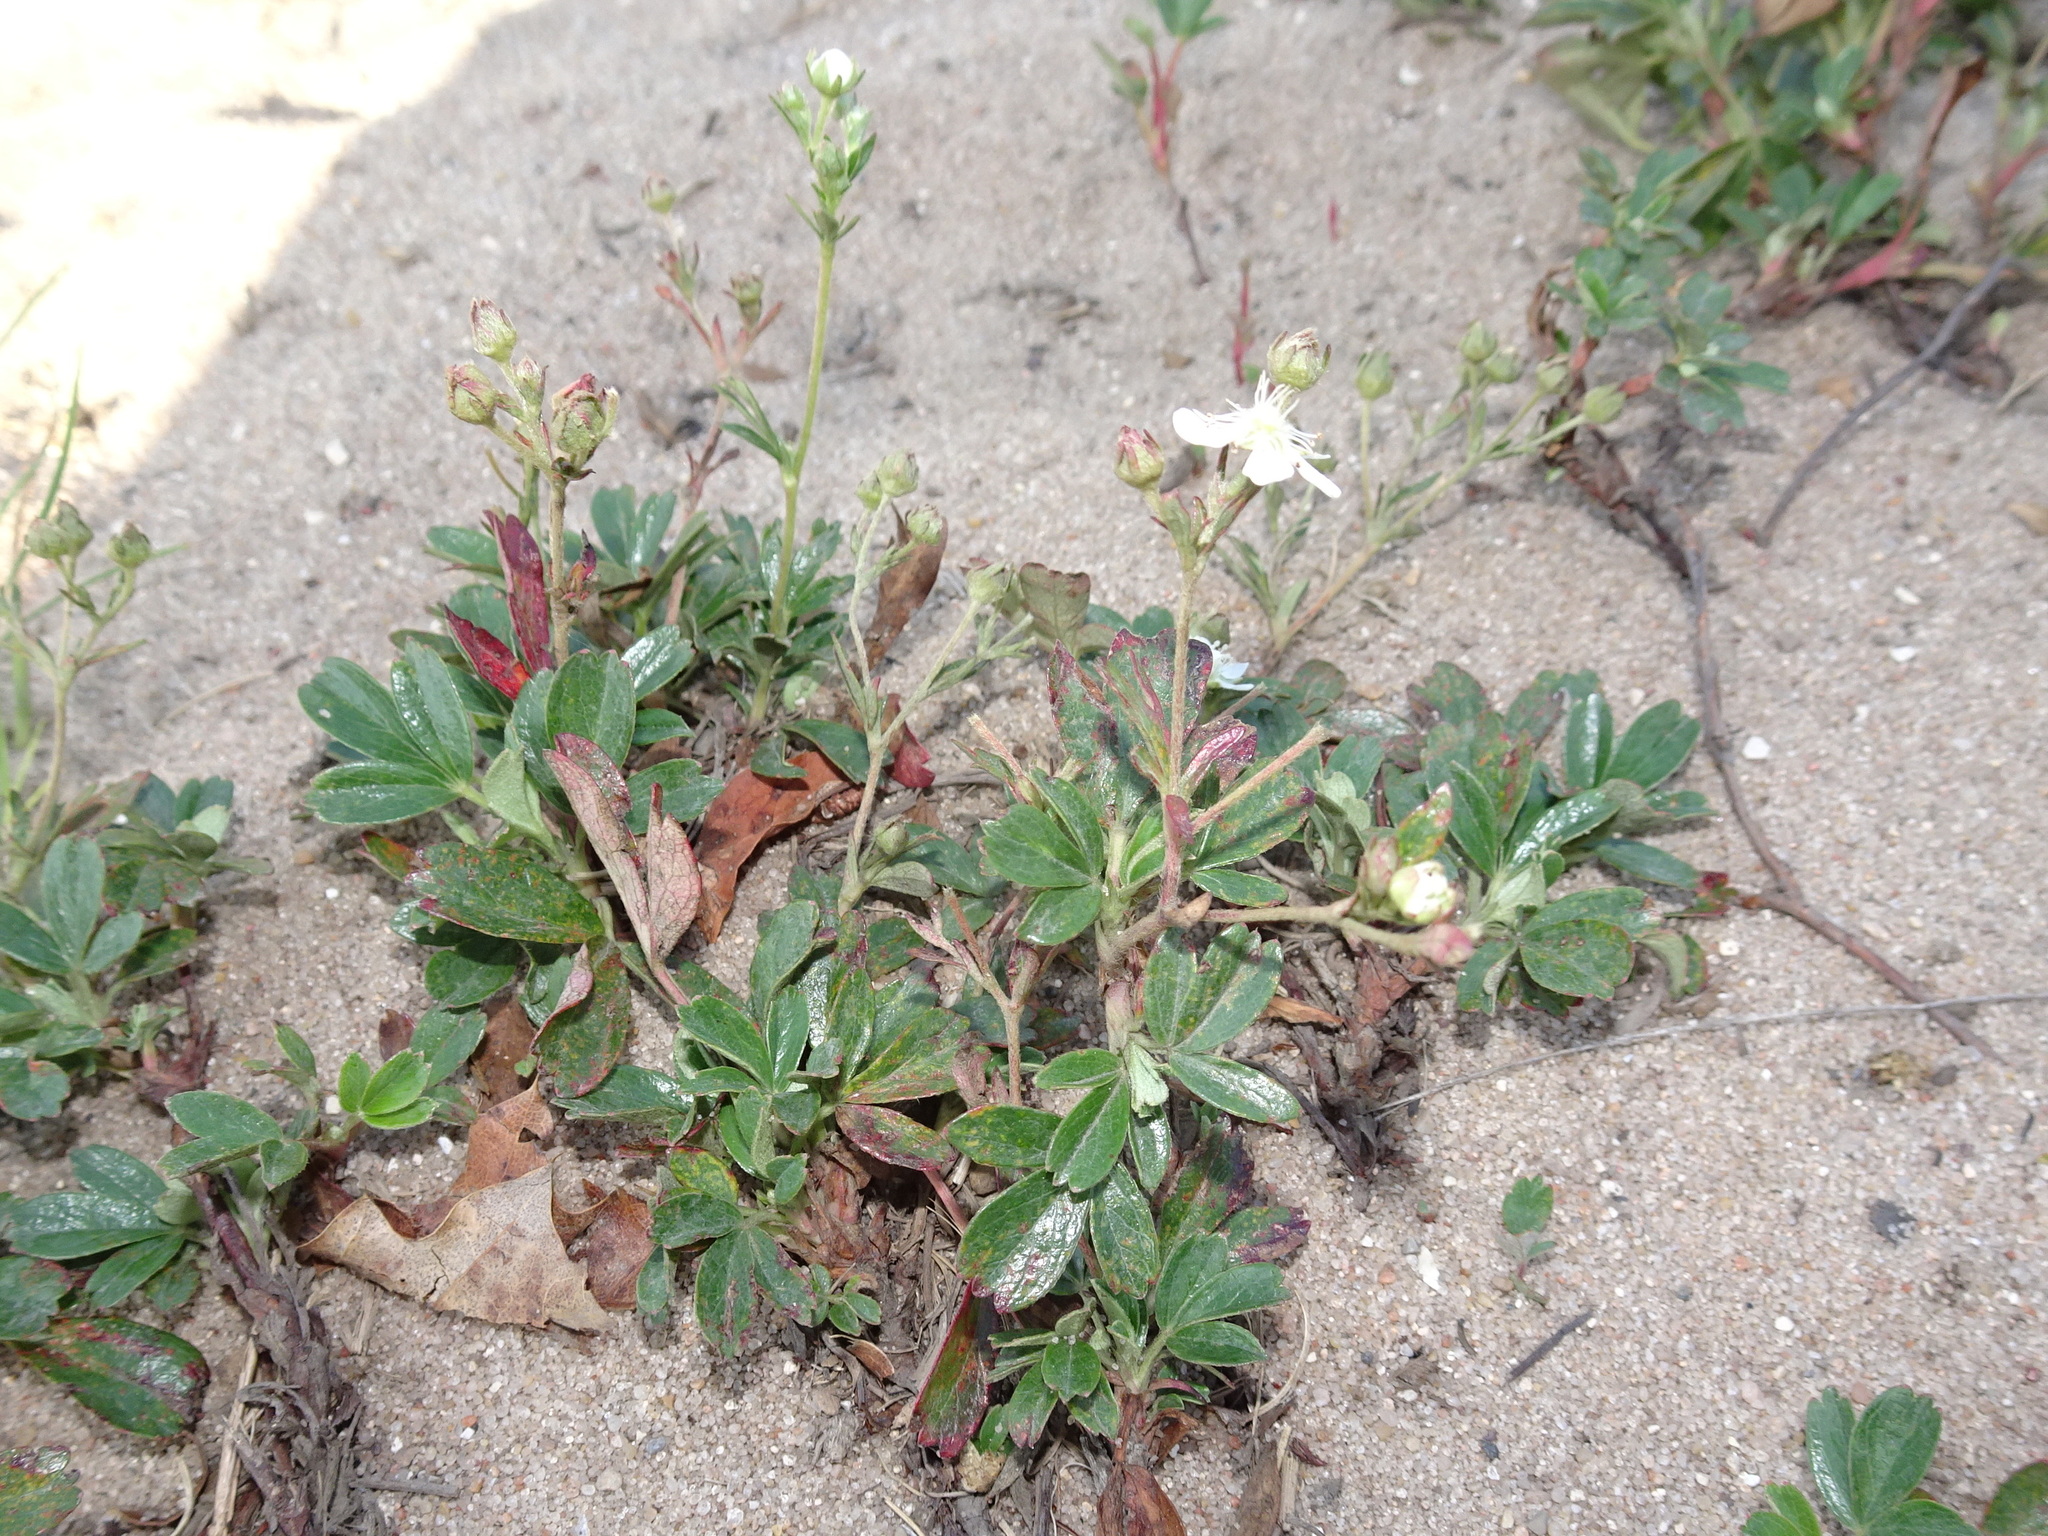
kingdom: Plantae
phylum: Tracheophyta
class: Magnoliopsida
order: Rosales
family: Rosaceae
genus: Sibbaldia
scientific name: Sibbaldia tridentata
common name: Three-toothed cinquefoil
